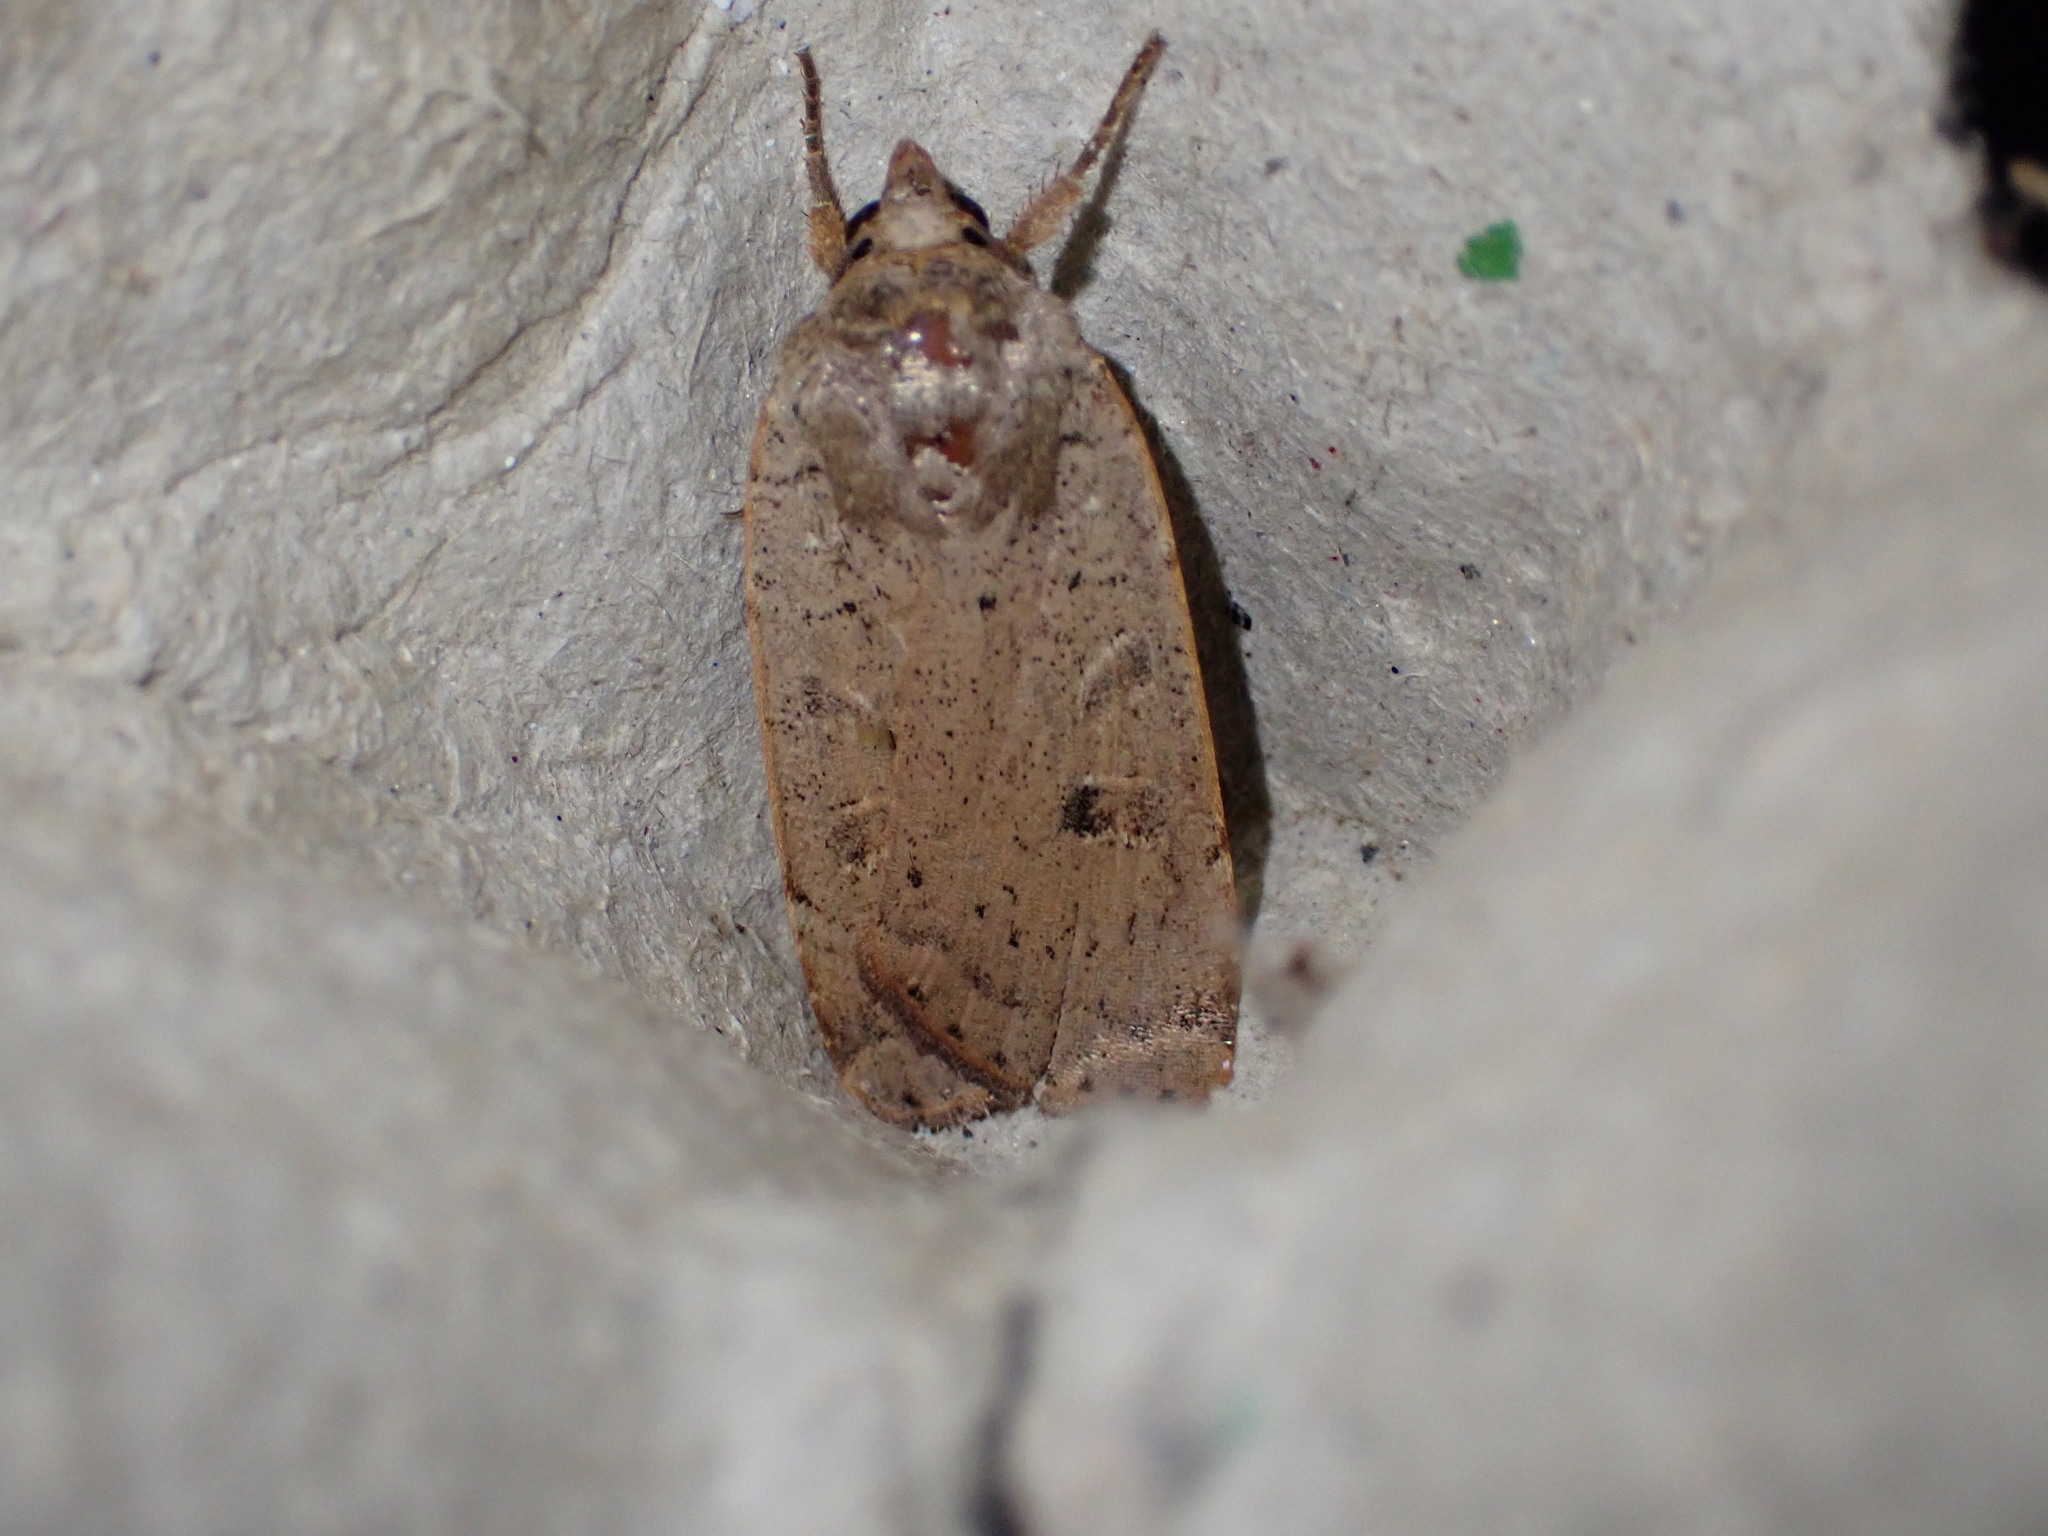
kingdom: Animalia
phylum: Arthropoda
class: Insecta
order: Lepidoptera
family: Noctuidae
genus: Noctua
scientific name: Noctua comes
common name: Lesser yellow underwing
